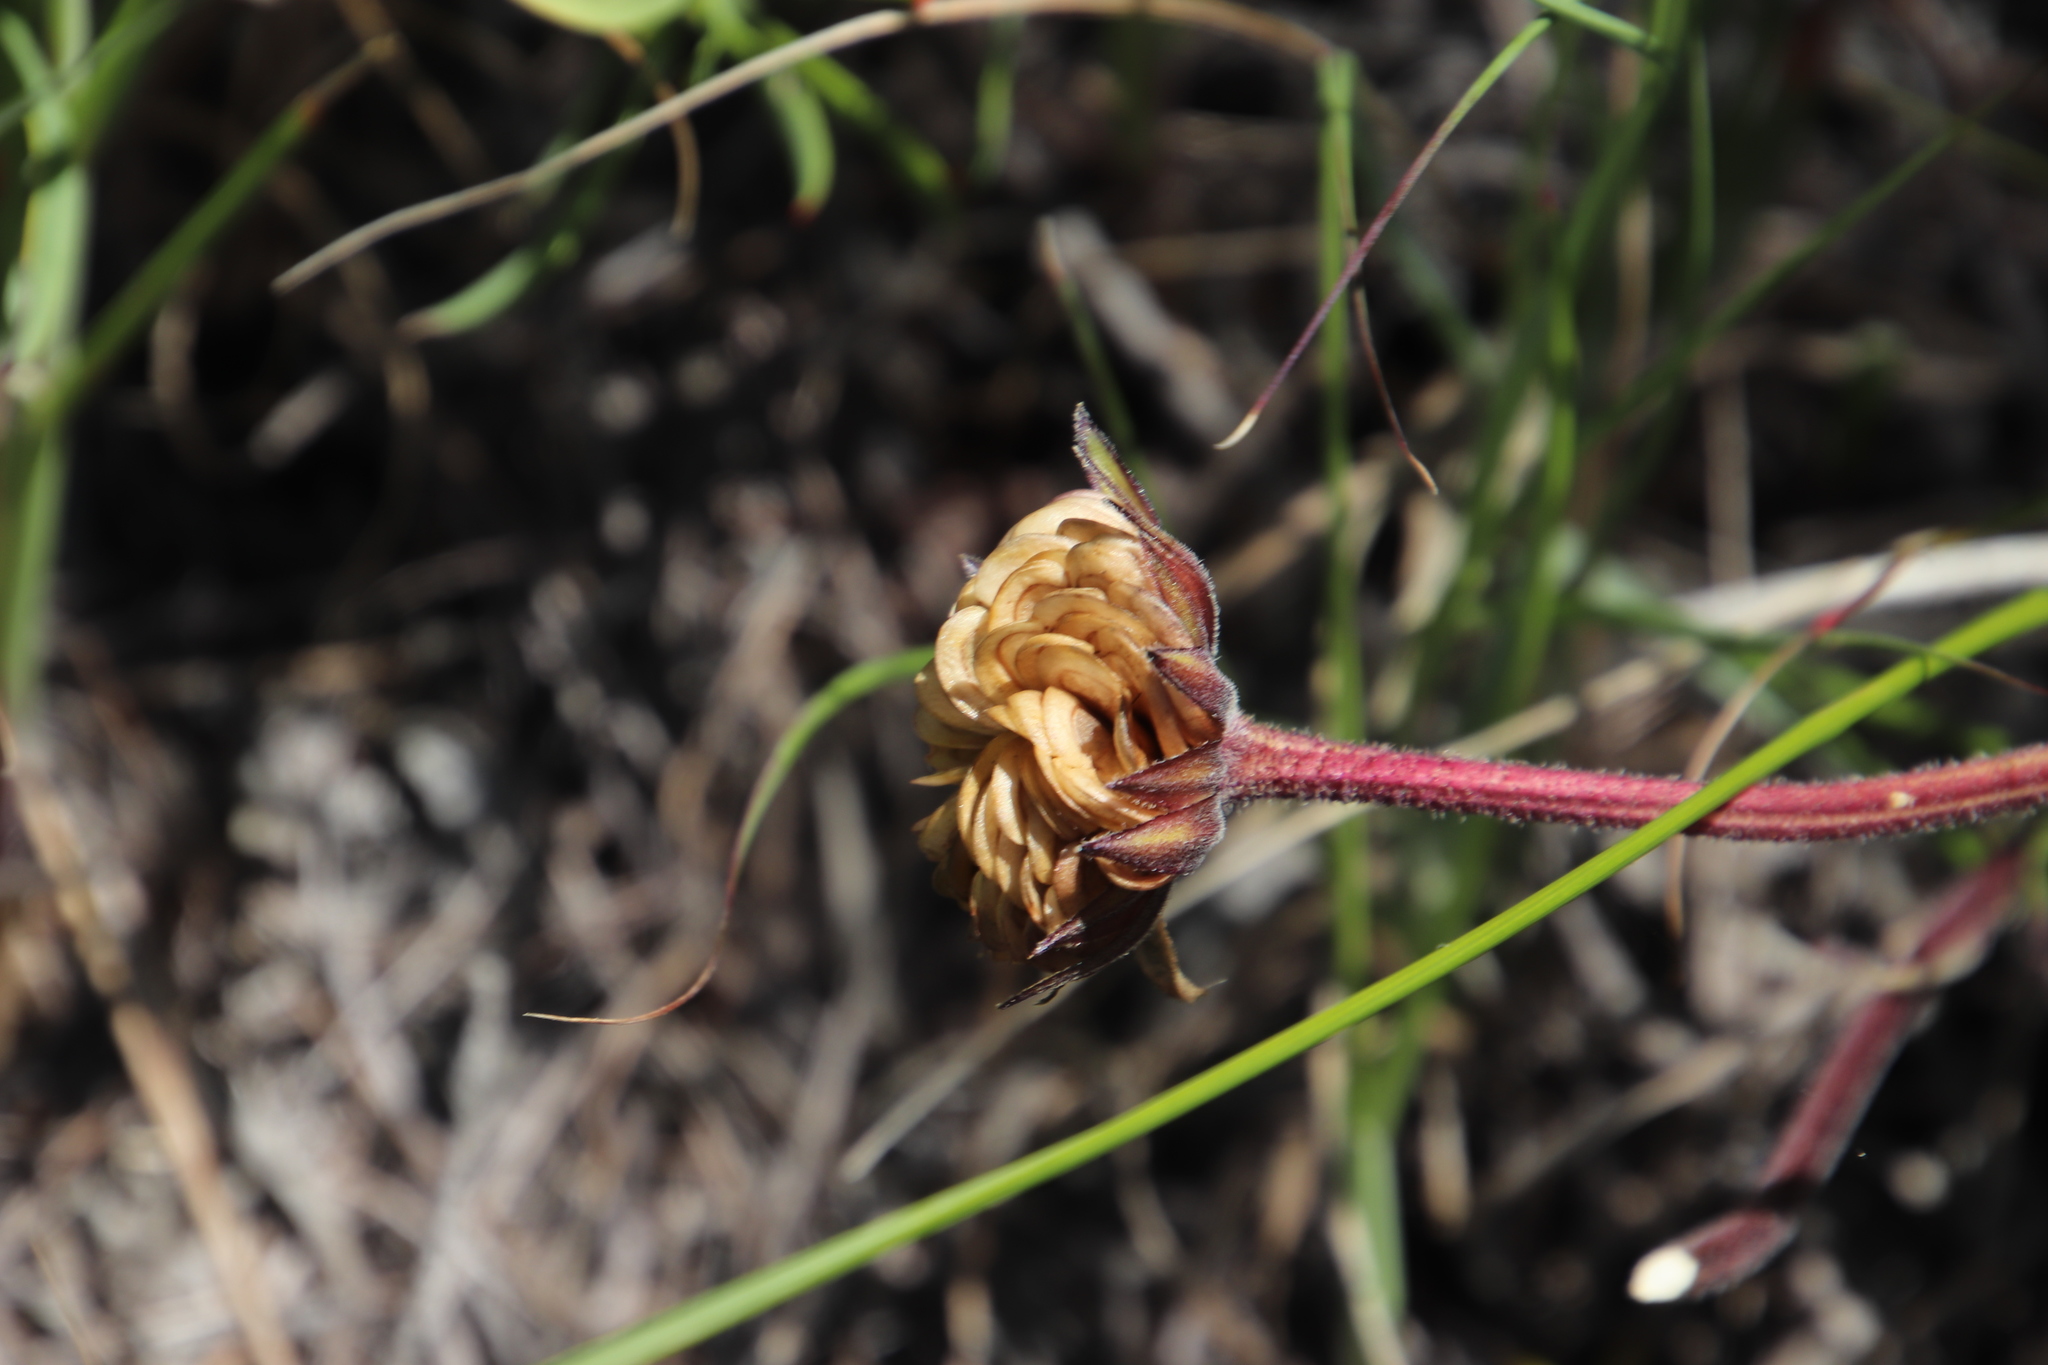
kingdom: Plantae
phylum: Tracheophyta
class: Magnoliopsida
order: Asterales
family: Asteraceae
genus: Dimorphotheca
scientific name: Dimorphotheca nudicaulis
